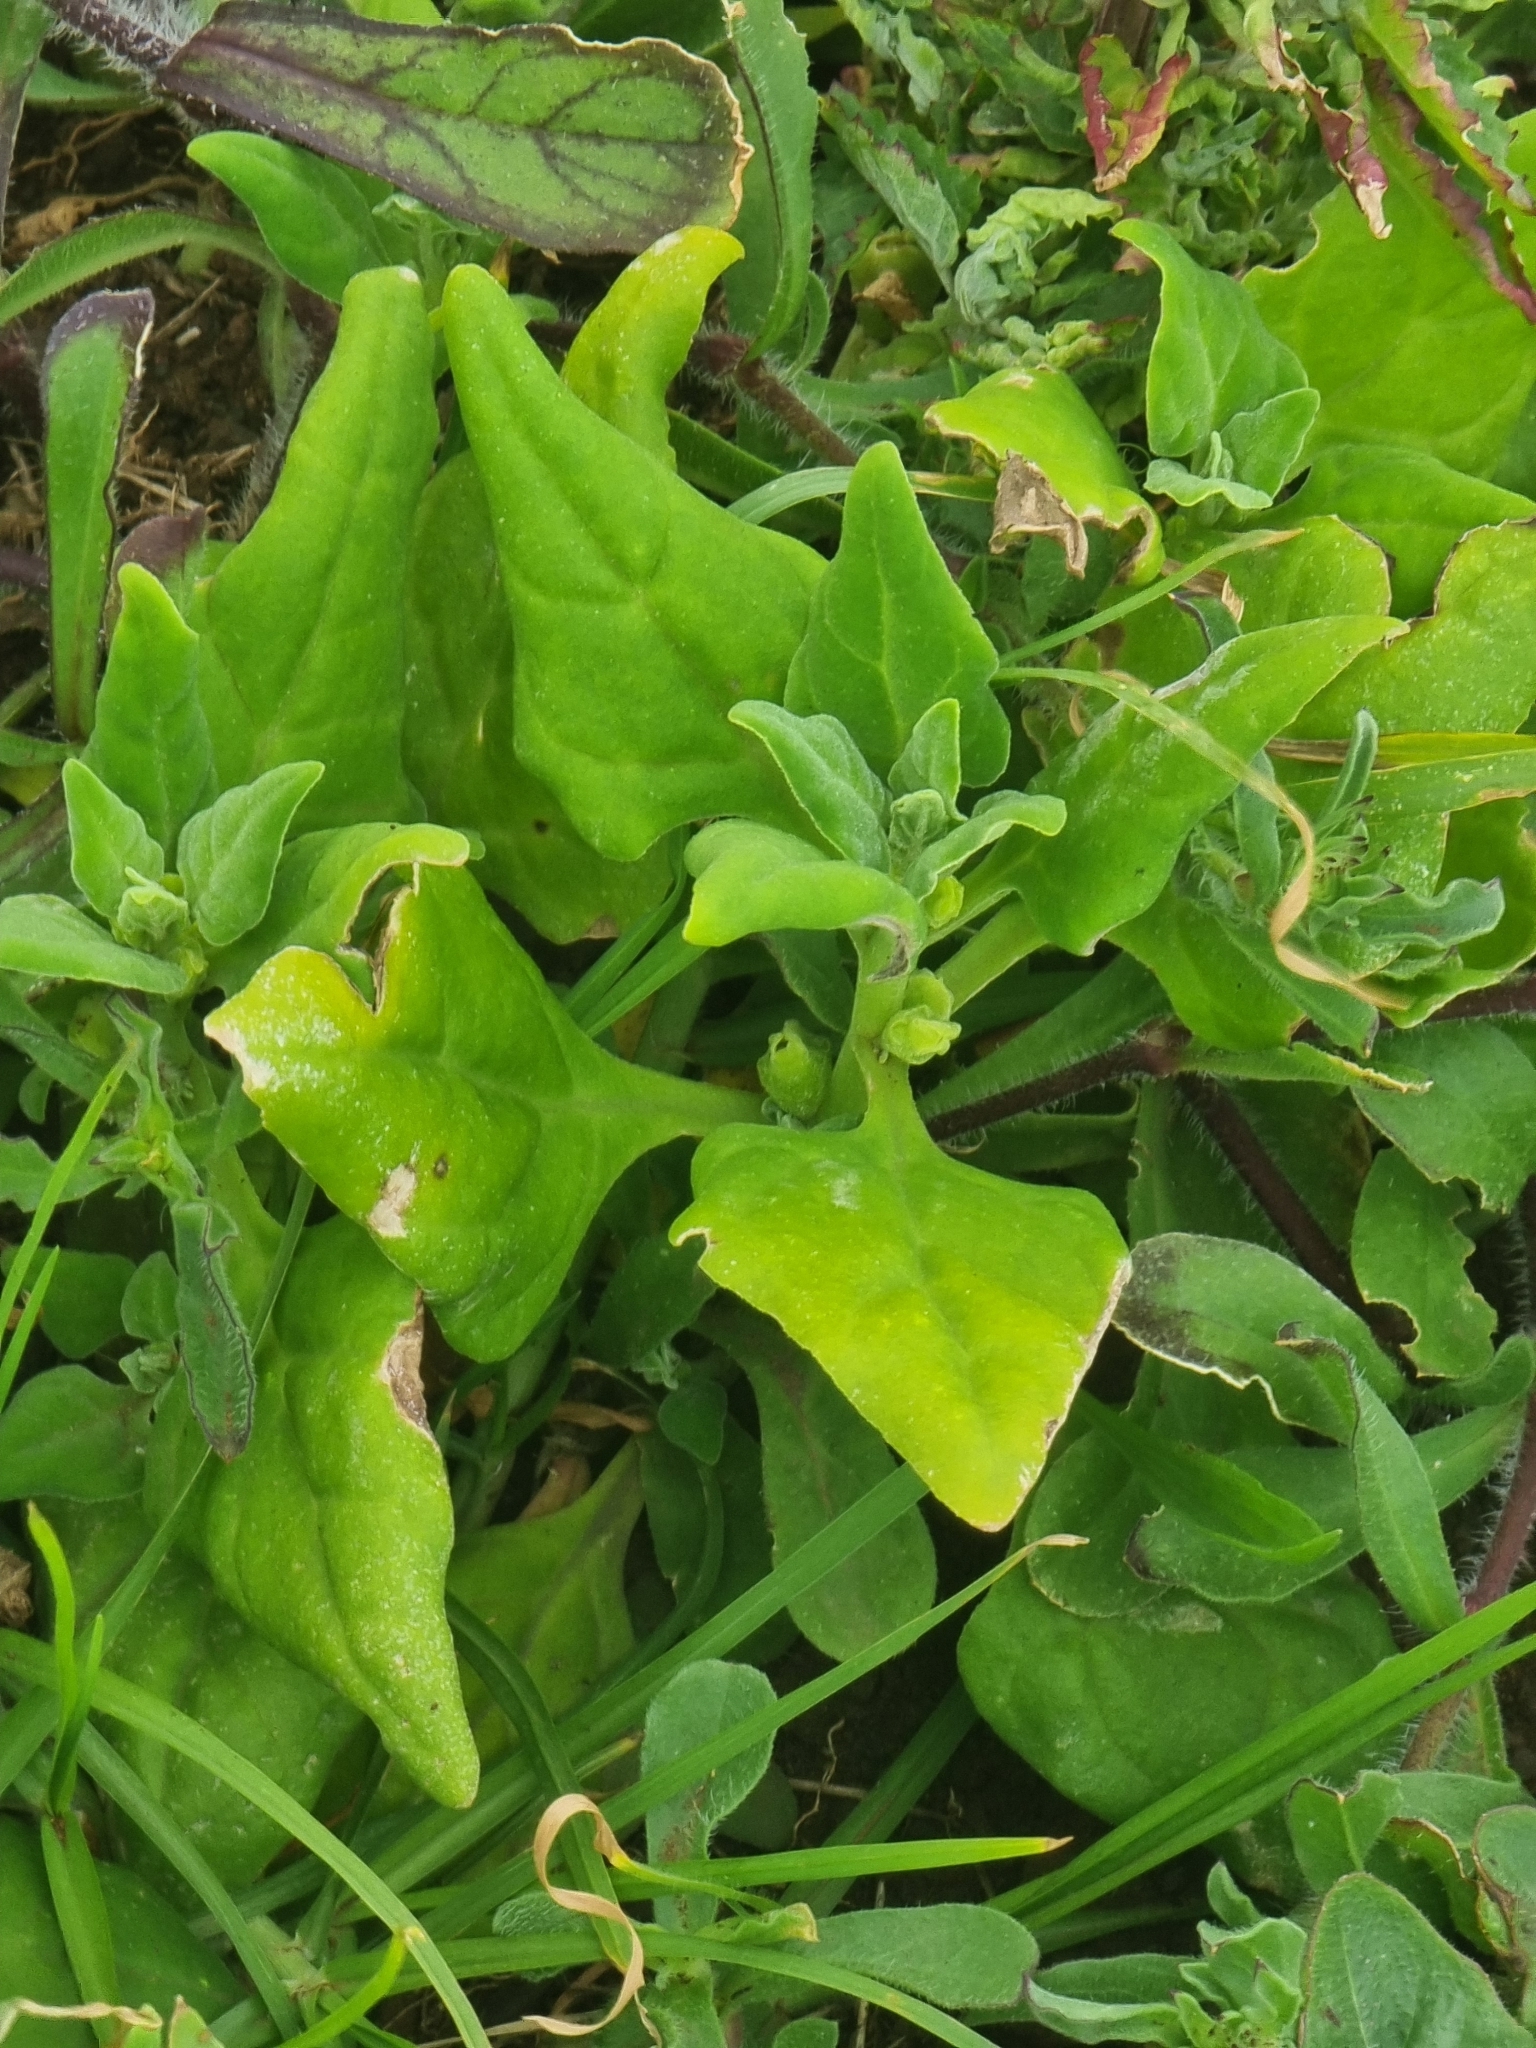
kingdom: Plantae
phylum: Tracheophyta
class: Magnoliopsida
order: Caryophyllales
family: Aizoaceae
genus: Tetragonia
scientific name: Tetragonia tetragonoides
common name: New zealand-spinach
